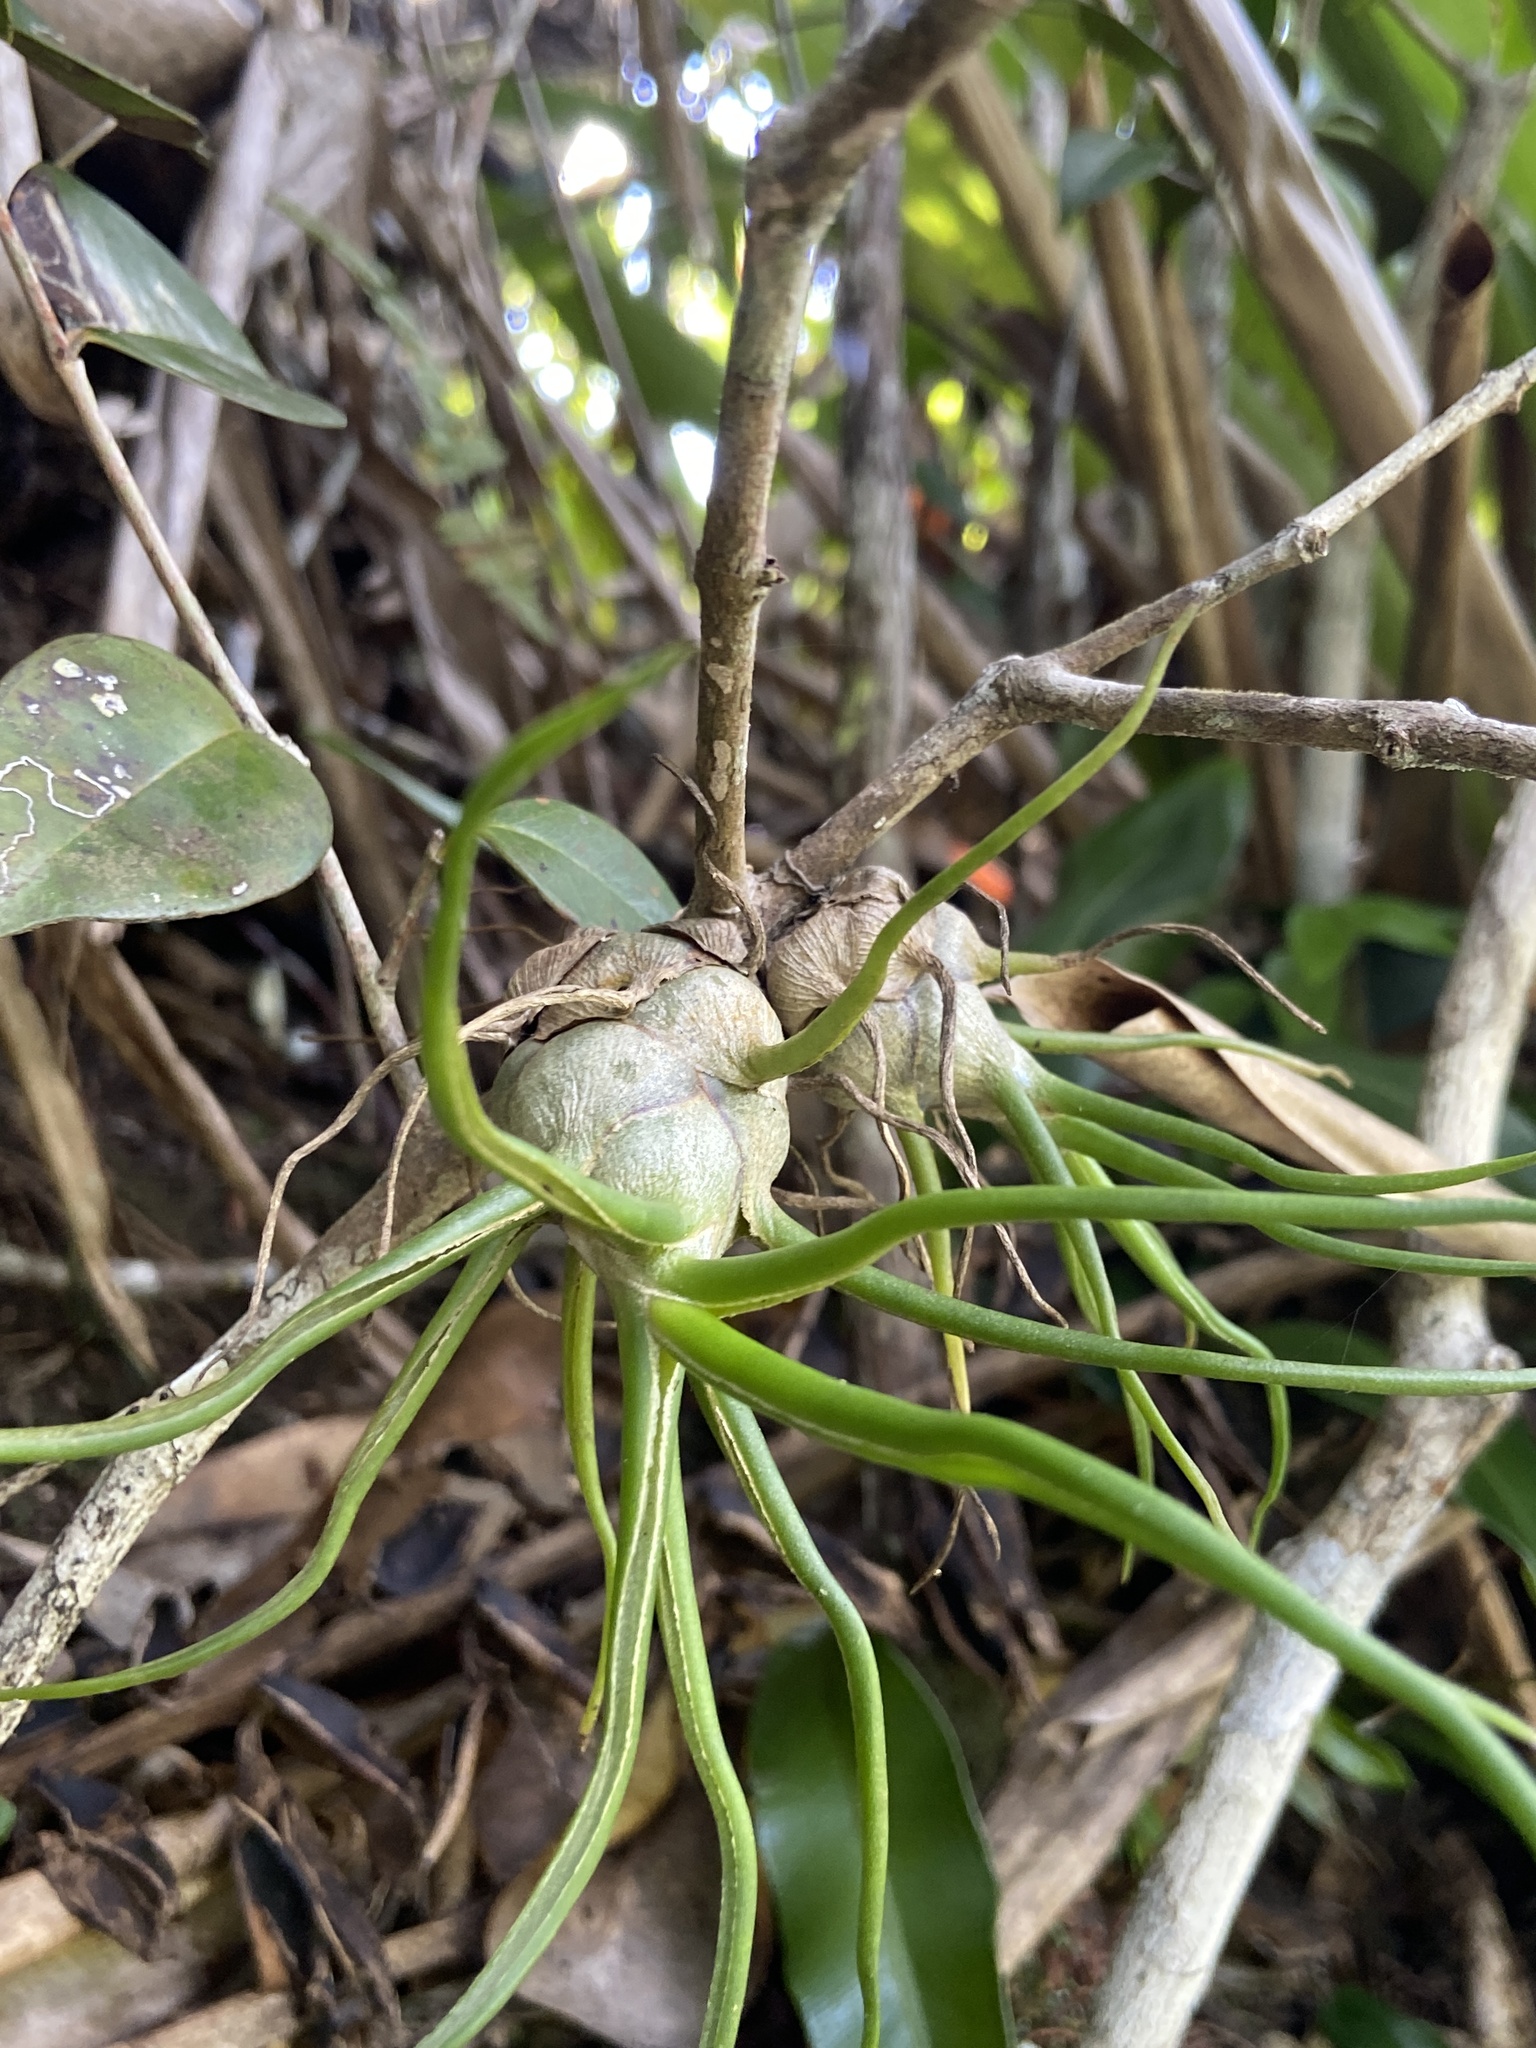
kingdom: Plantae
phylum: Tracheophyta
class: Liliopsida
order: Poales
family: Bromeliaceae
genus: Tillandsia
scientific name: Tillandsia bulbosa
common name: Bulbous airplant
